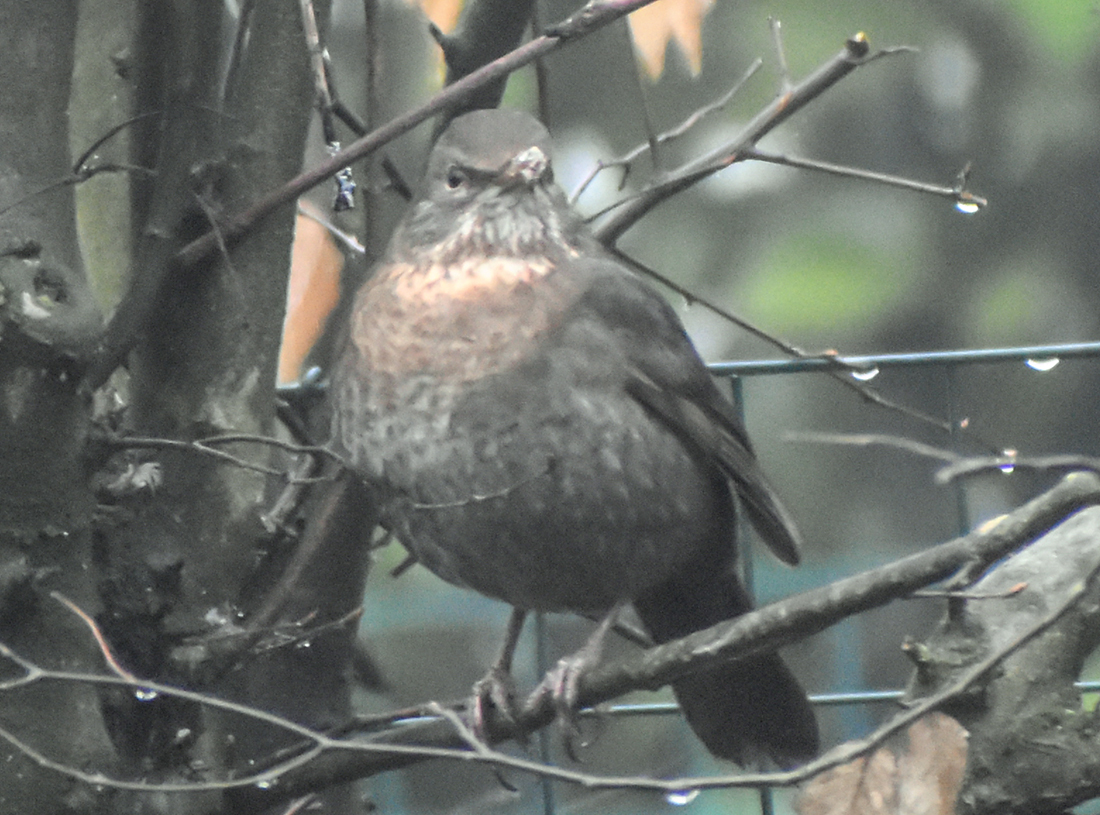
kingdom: Animalia
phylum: Chordata
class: Aves
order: Passeriformes
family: Turdidae
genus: Turdus
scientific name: Turdus merula
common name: Common blackbird
